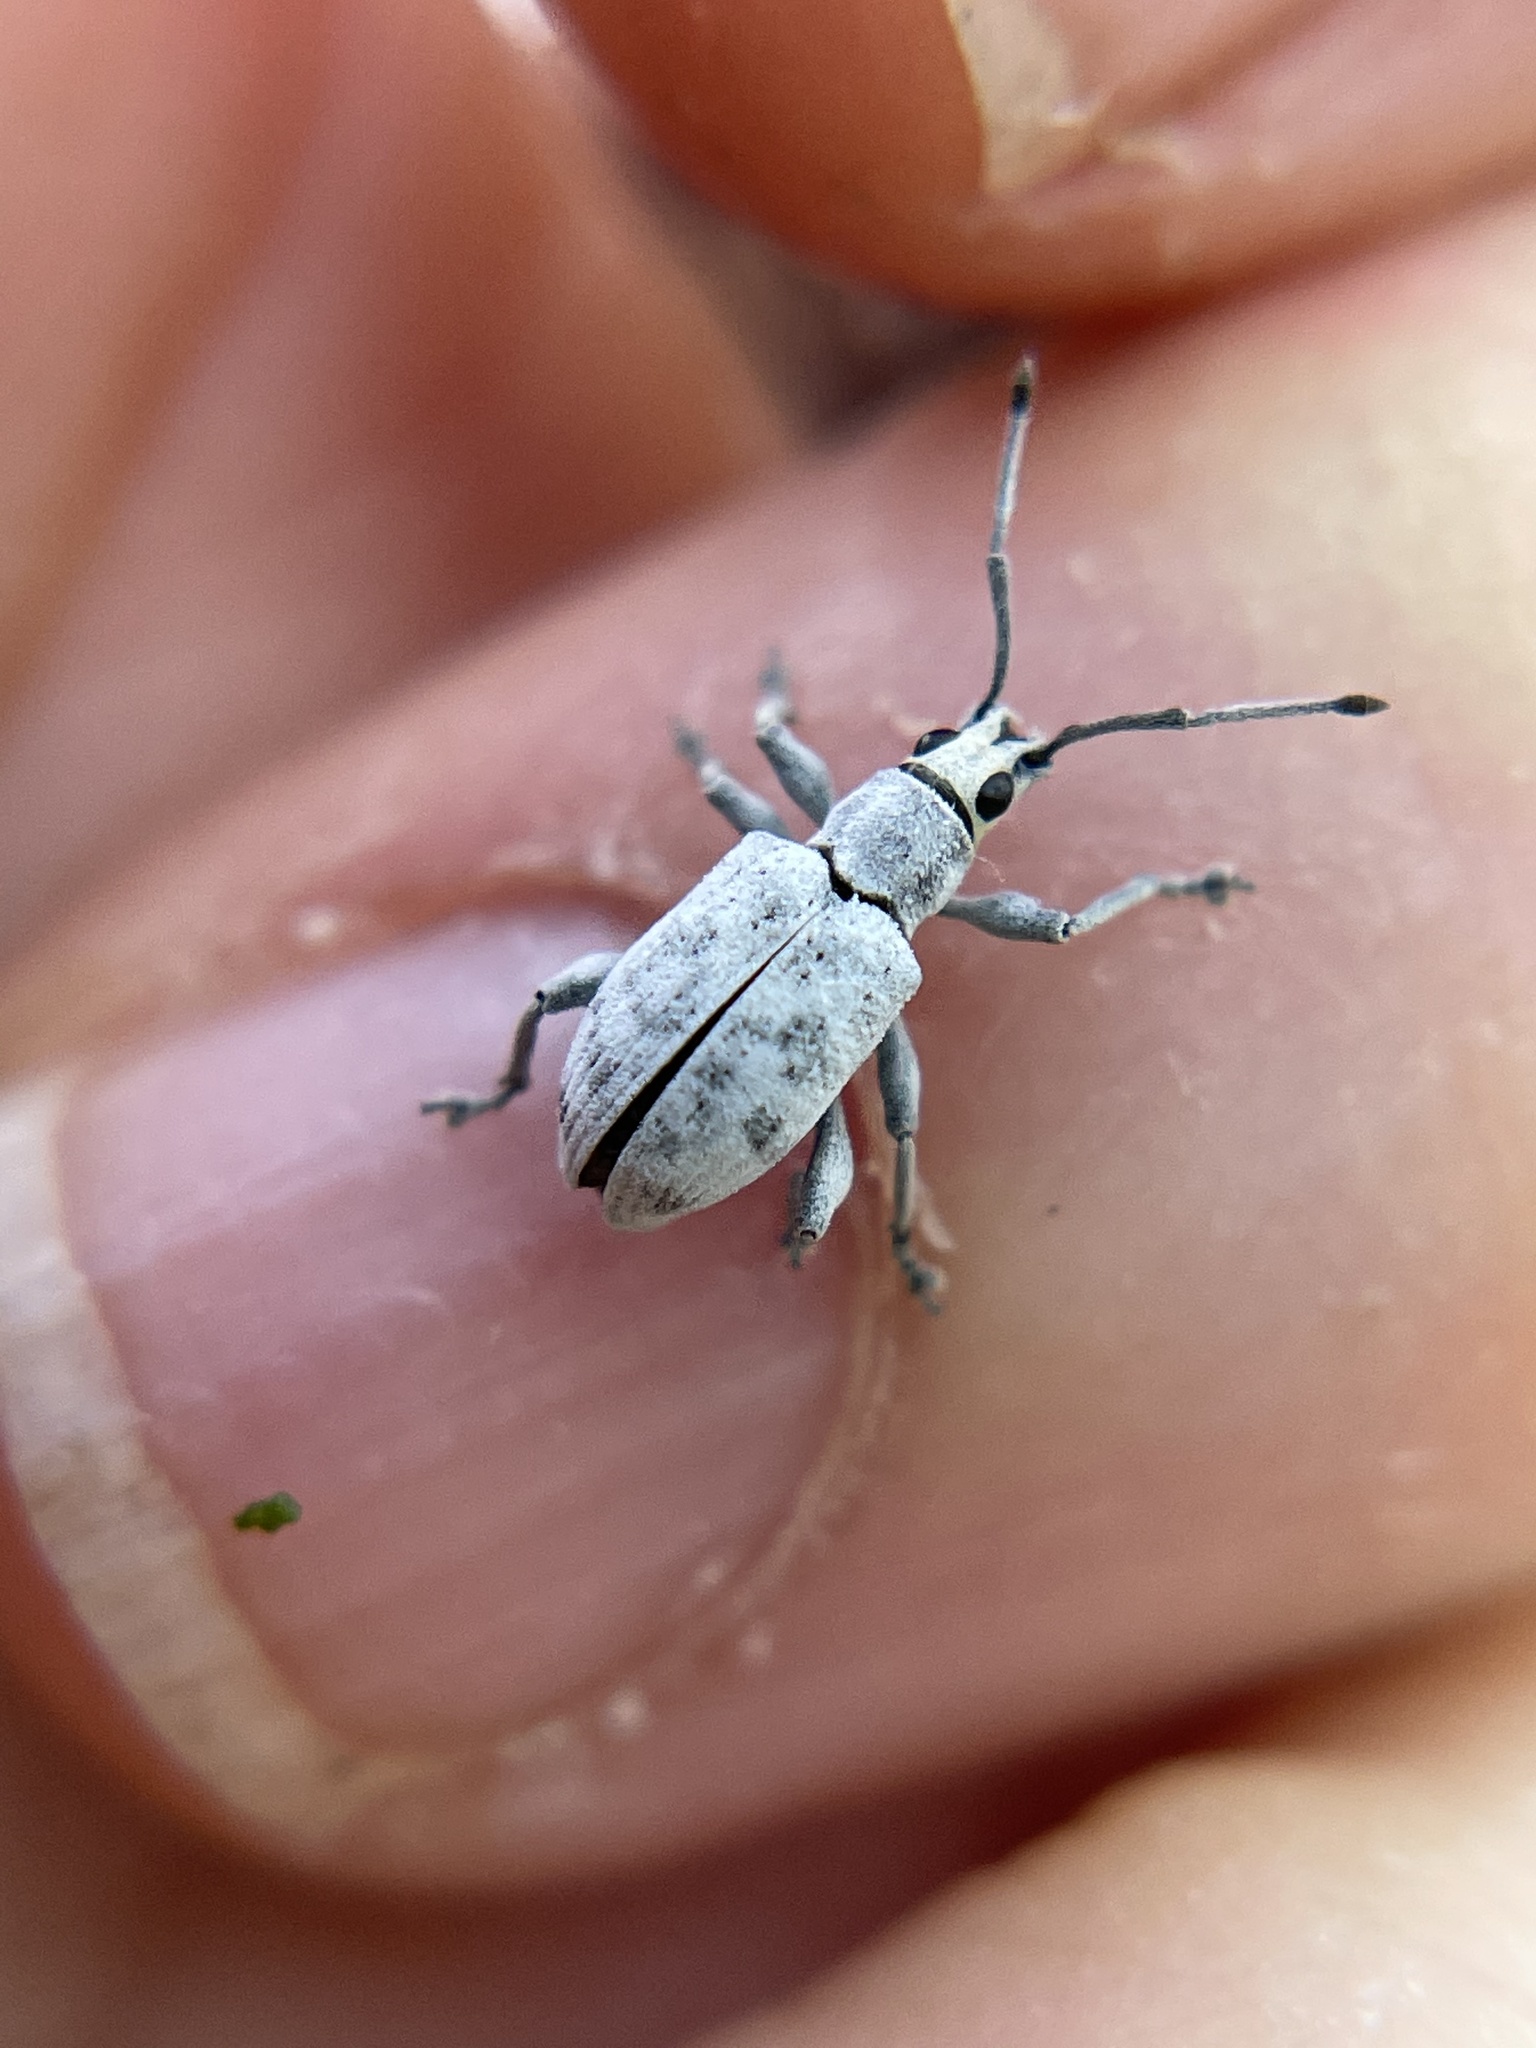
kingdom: Animalia
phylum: Arthropoda
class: Insecta
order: Coleoptera
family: Curculionidae
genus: Myllocerus
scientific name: Myllocerus undecimpustulatus
